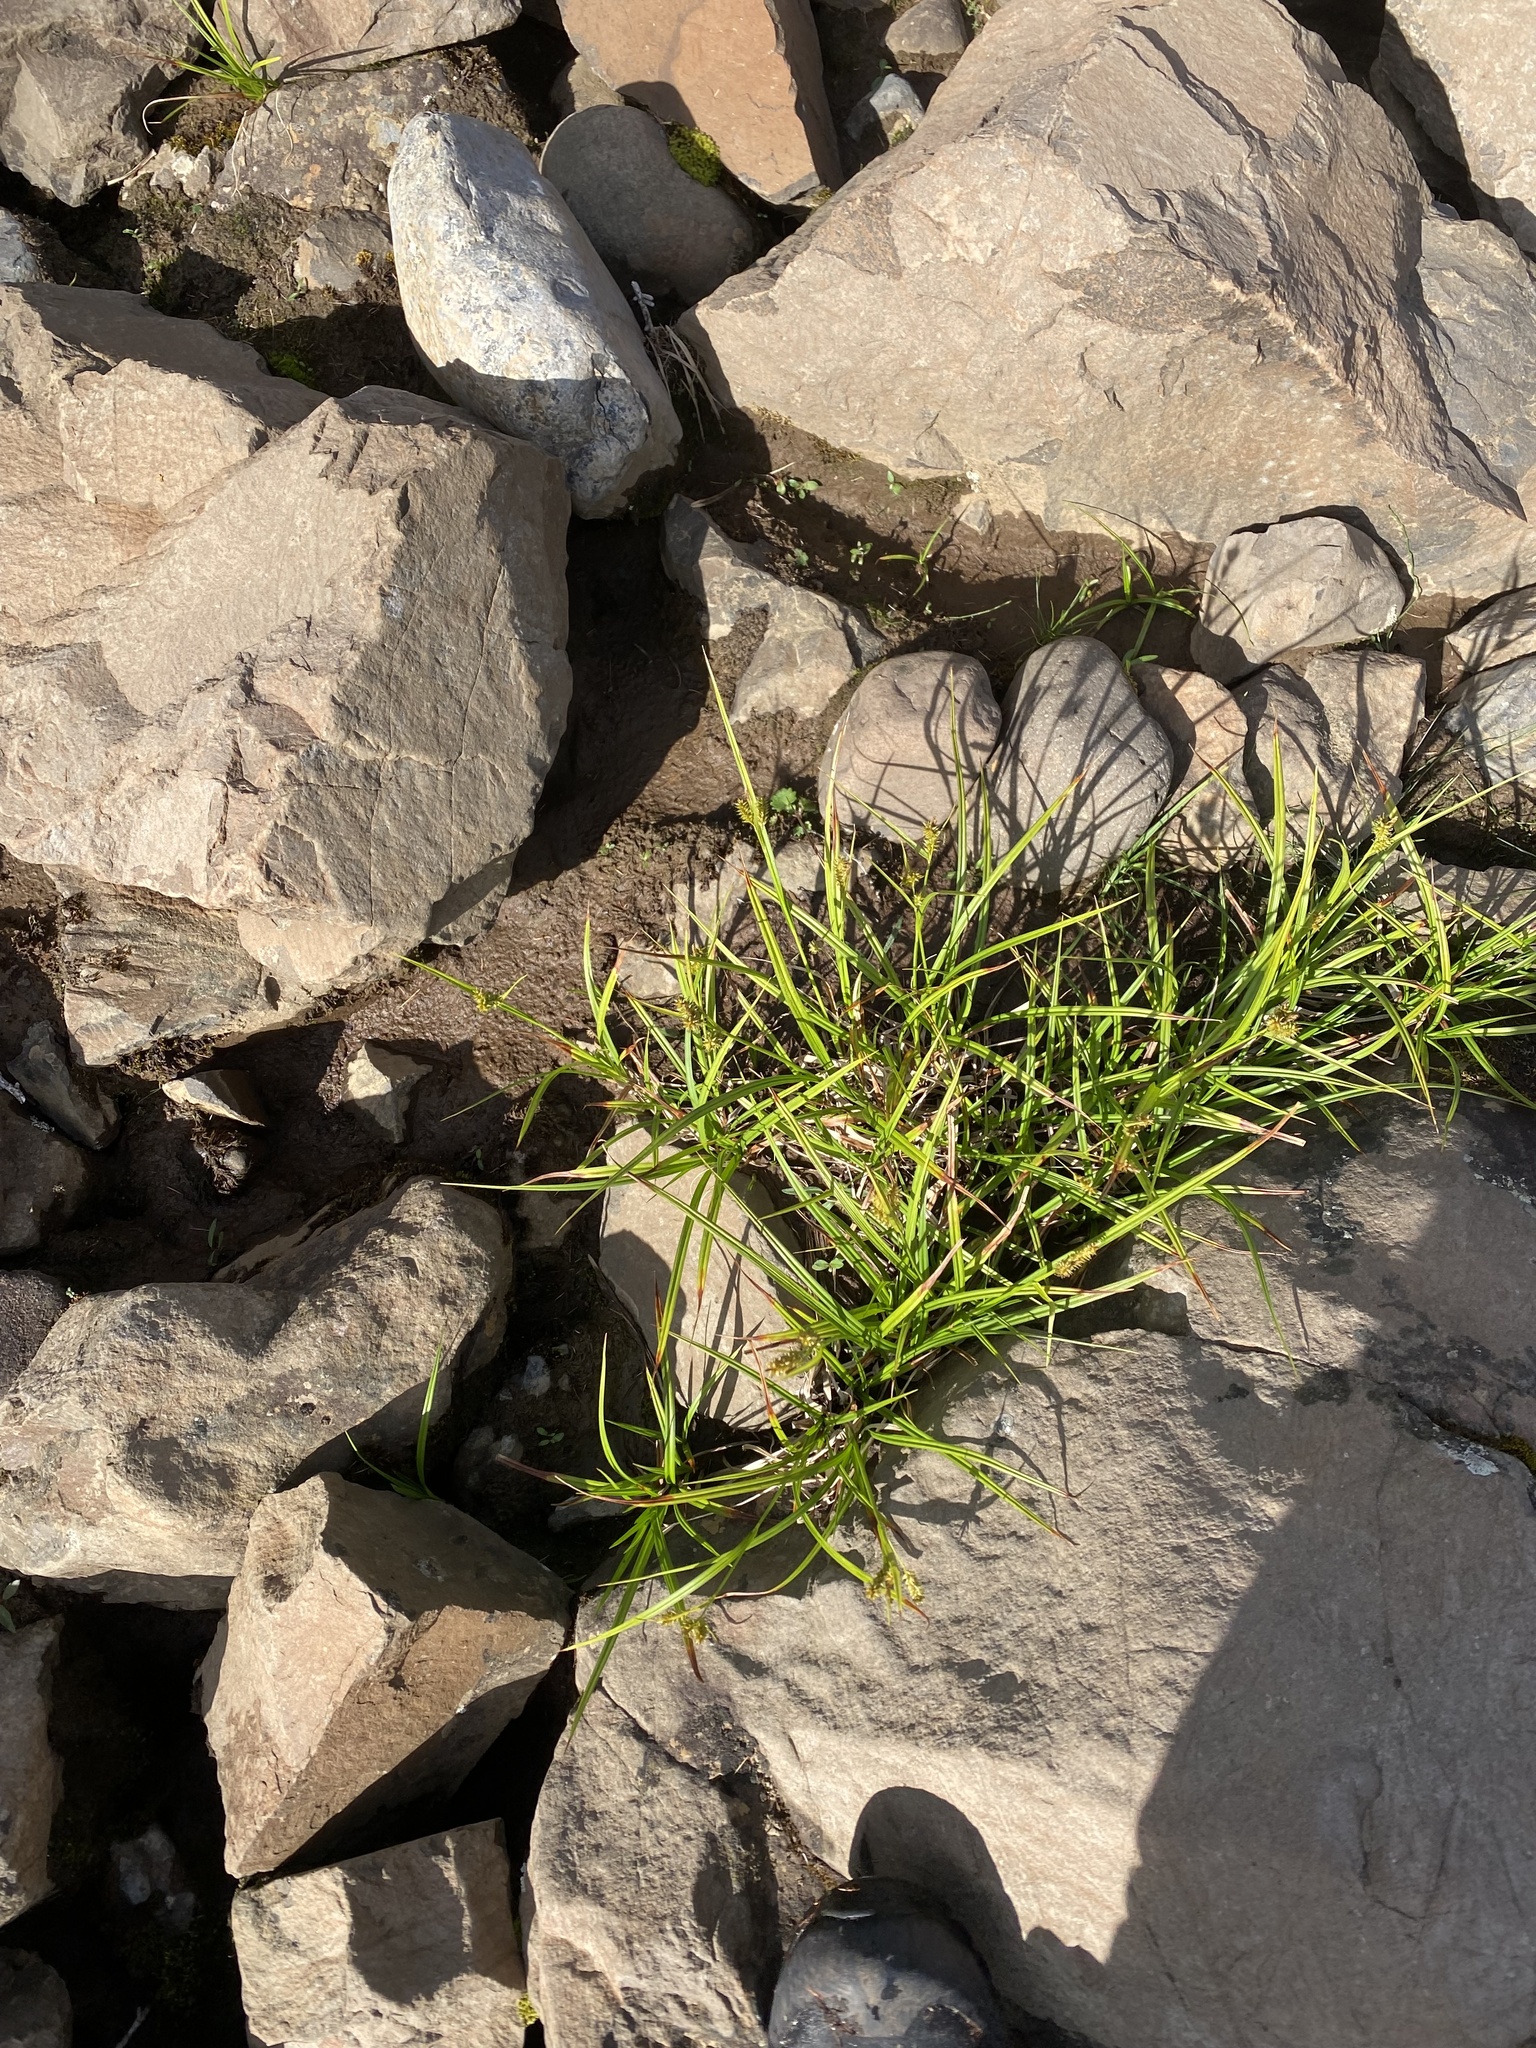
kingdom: Plantae
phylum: Tracheophyta
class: Liliopsida
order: Poales
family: Cyperaceae
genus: Carex
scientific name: Carex mollissima
